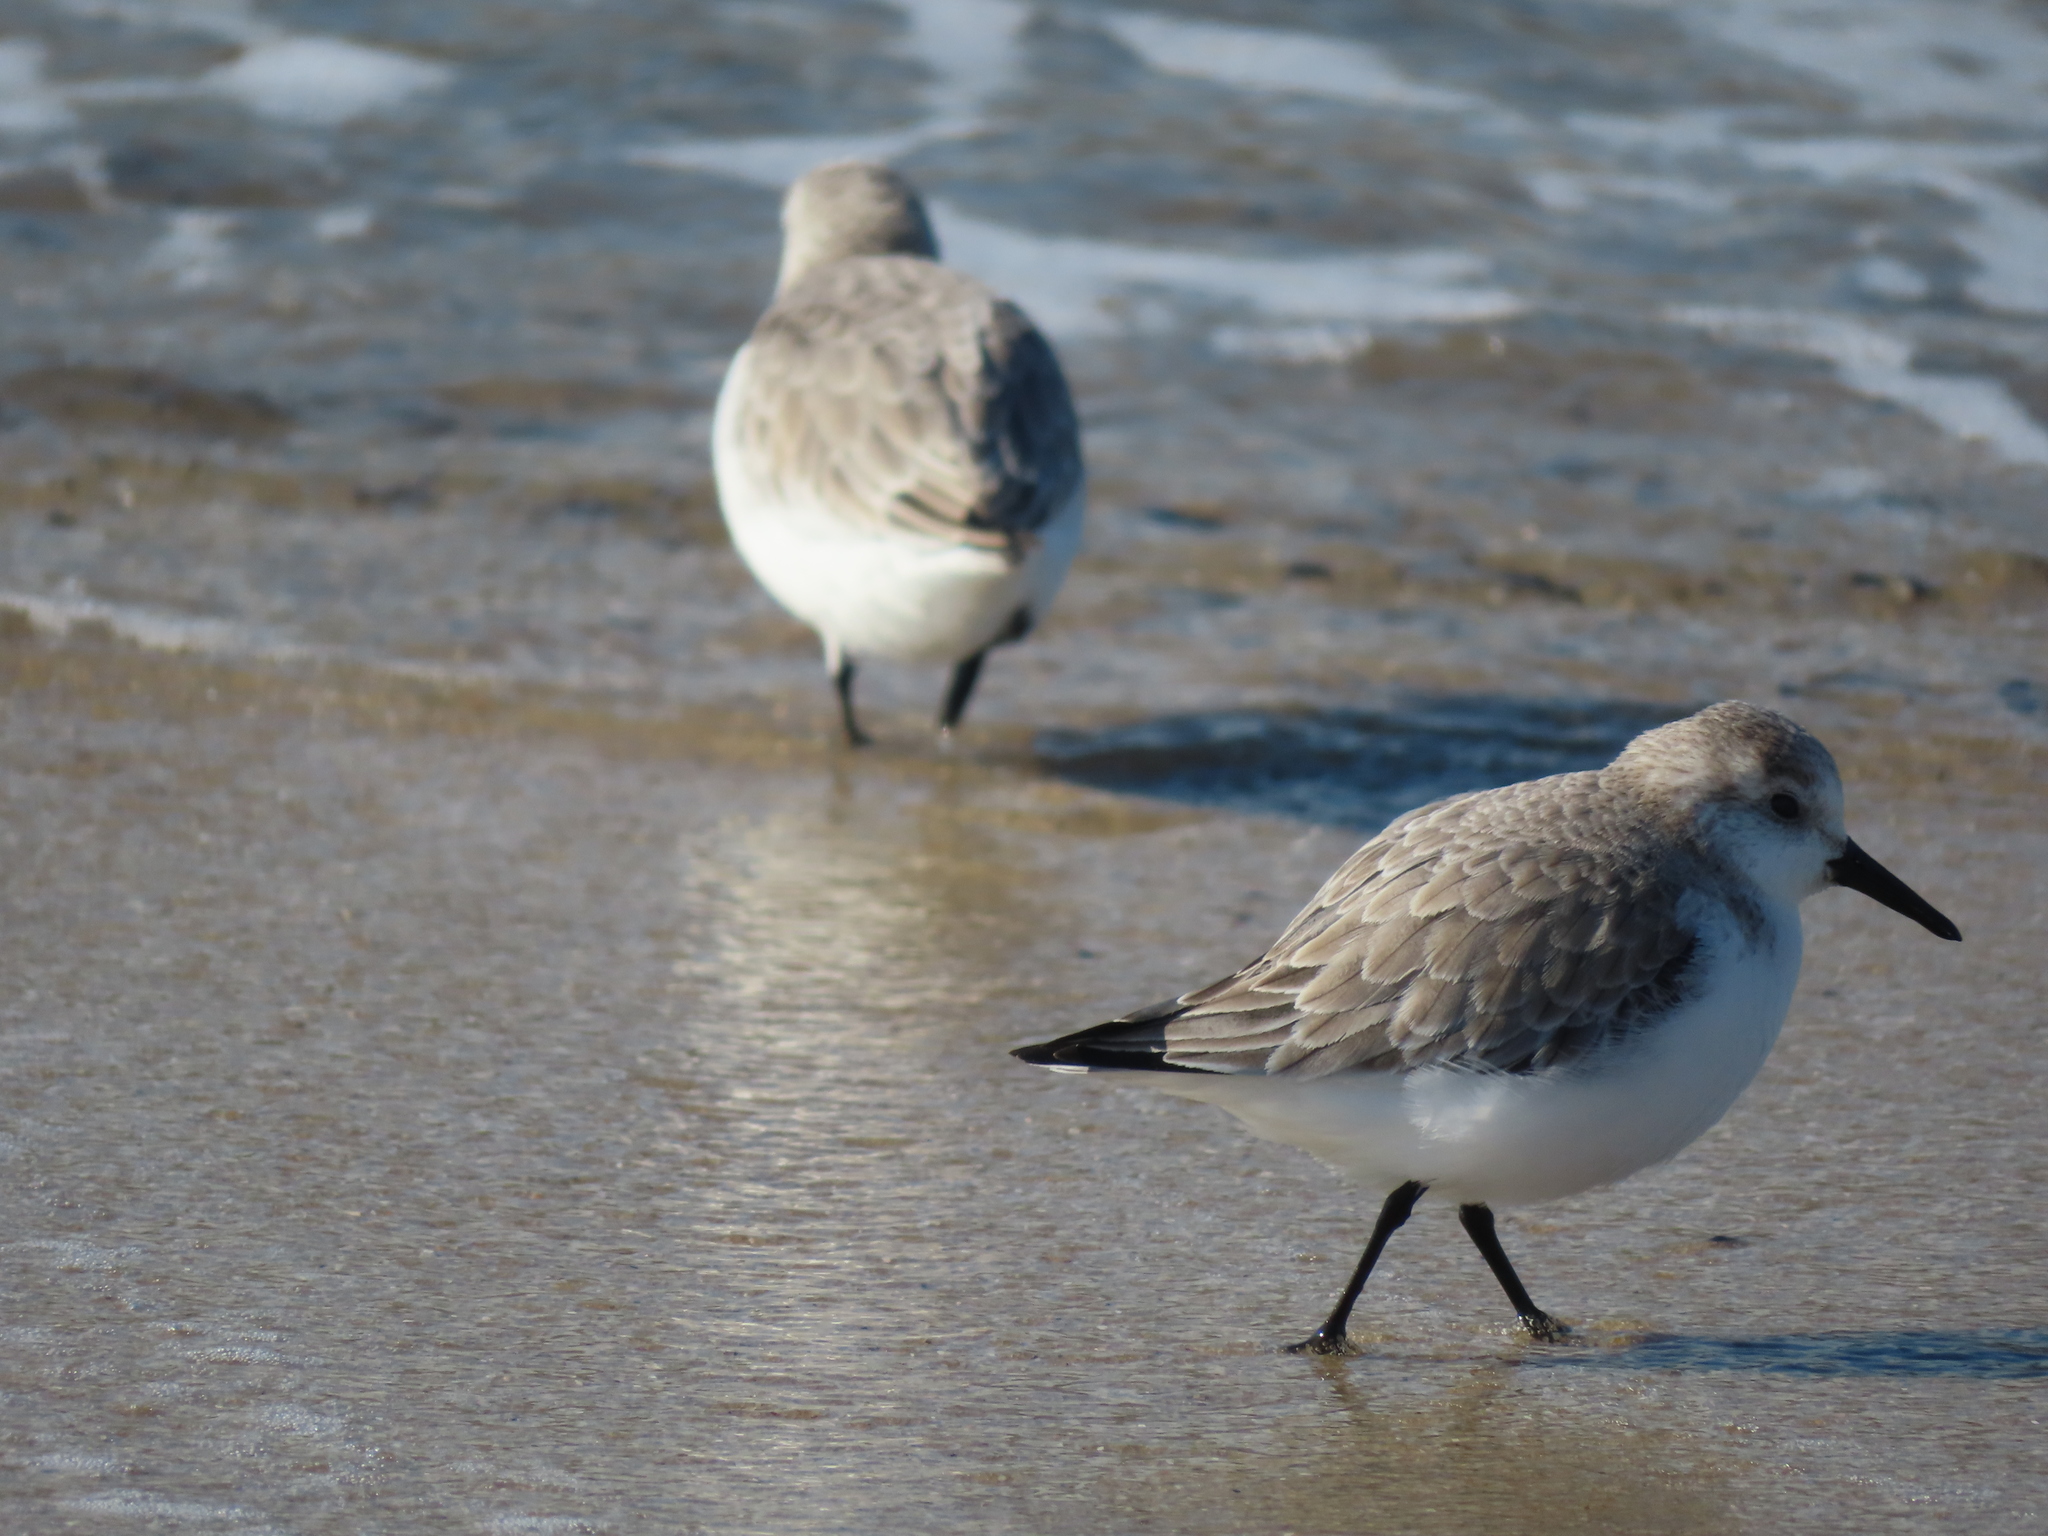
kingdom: Animalia
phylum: Chordata
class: Aves
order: Charadriiformes
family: Scolopacidae
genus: Calidris
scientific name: Calidris alba
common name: Sanderling
